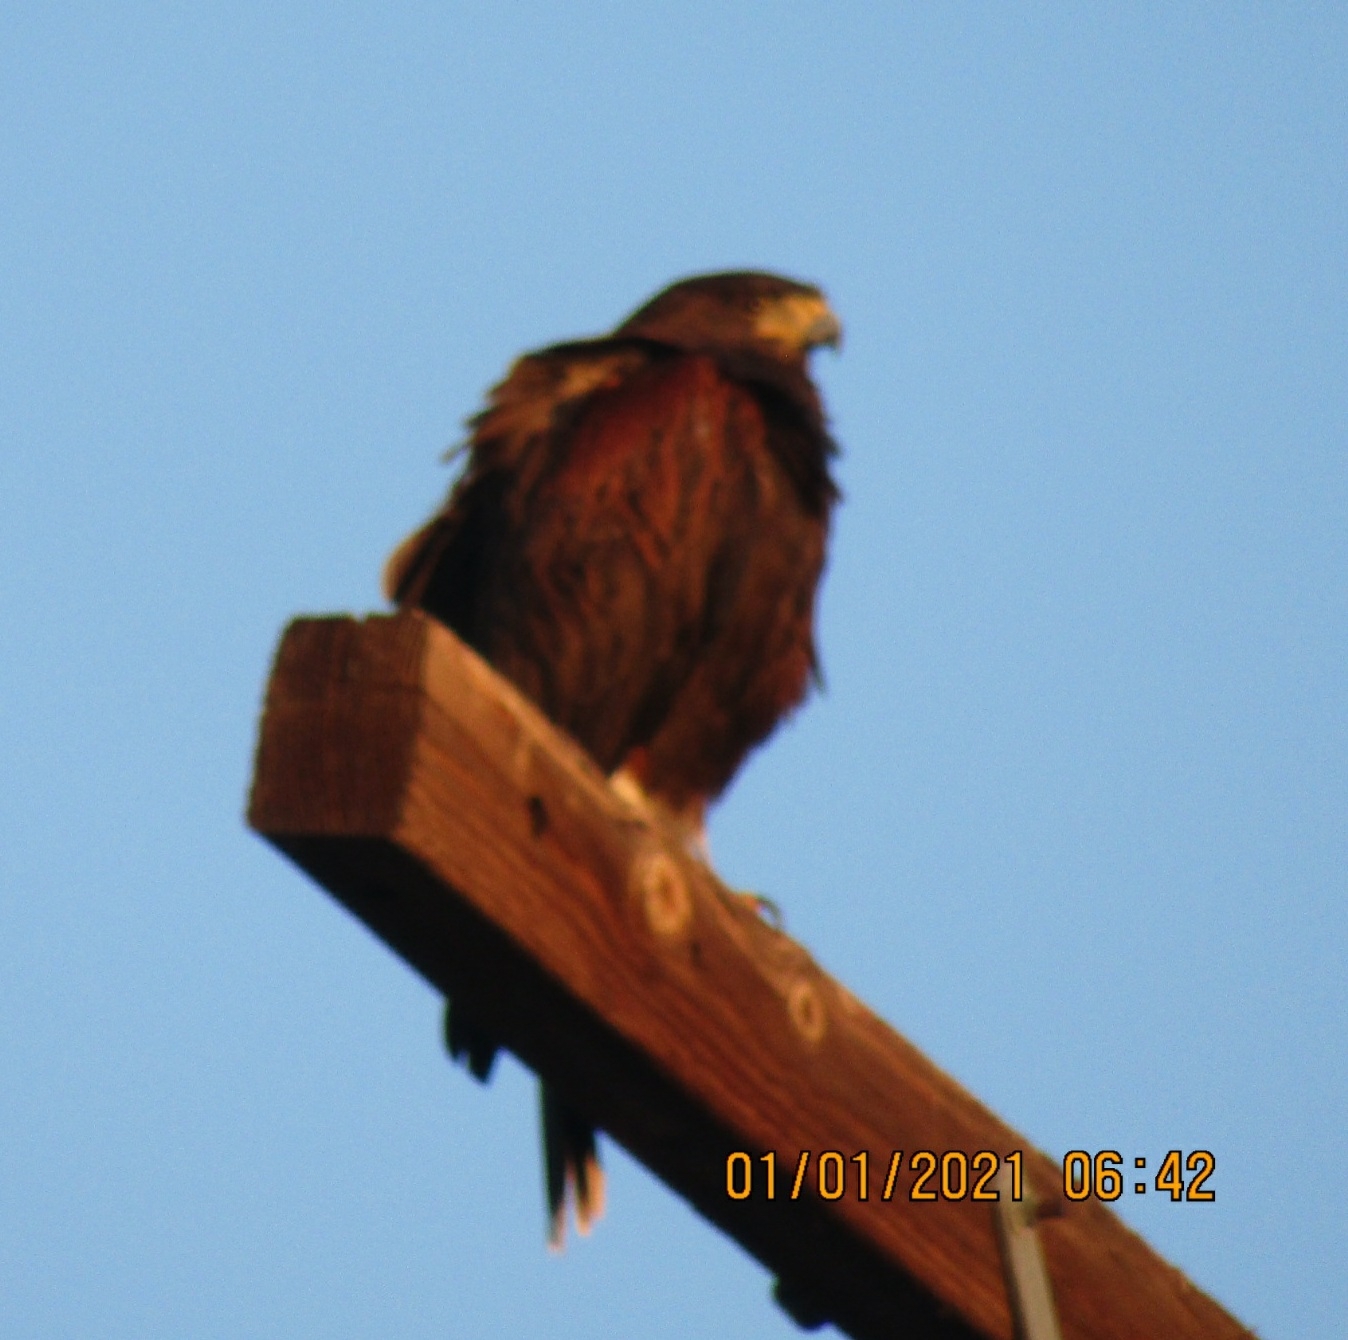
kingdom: Animalia
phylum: Chordata
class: Aves
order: Accipitriformes
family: Accipitridae
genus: Parabuteo
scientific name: Parabuteo unicinctus
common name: Harris's hawk
